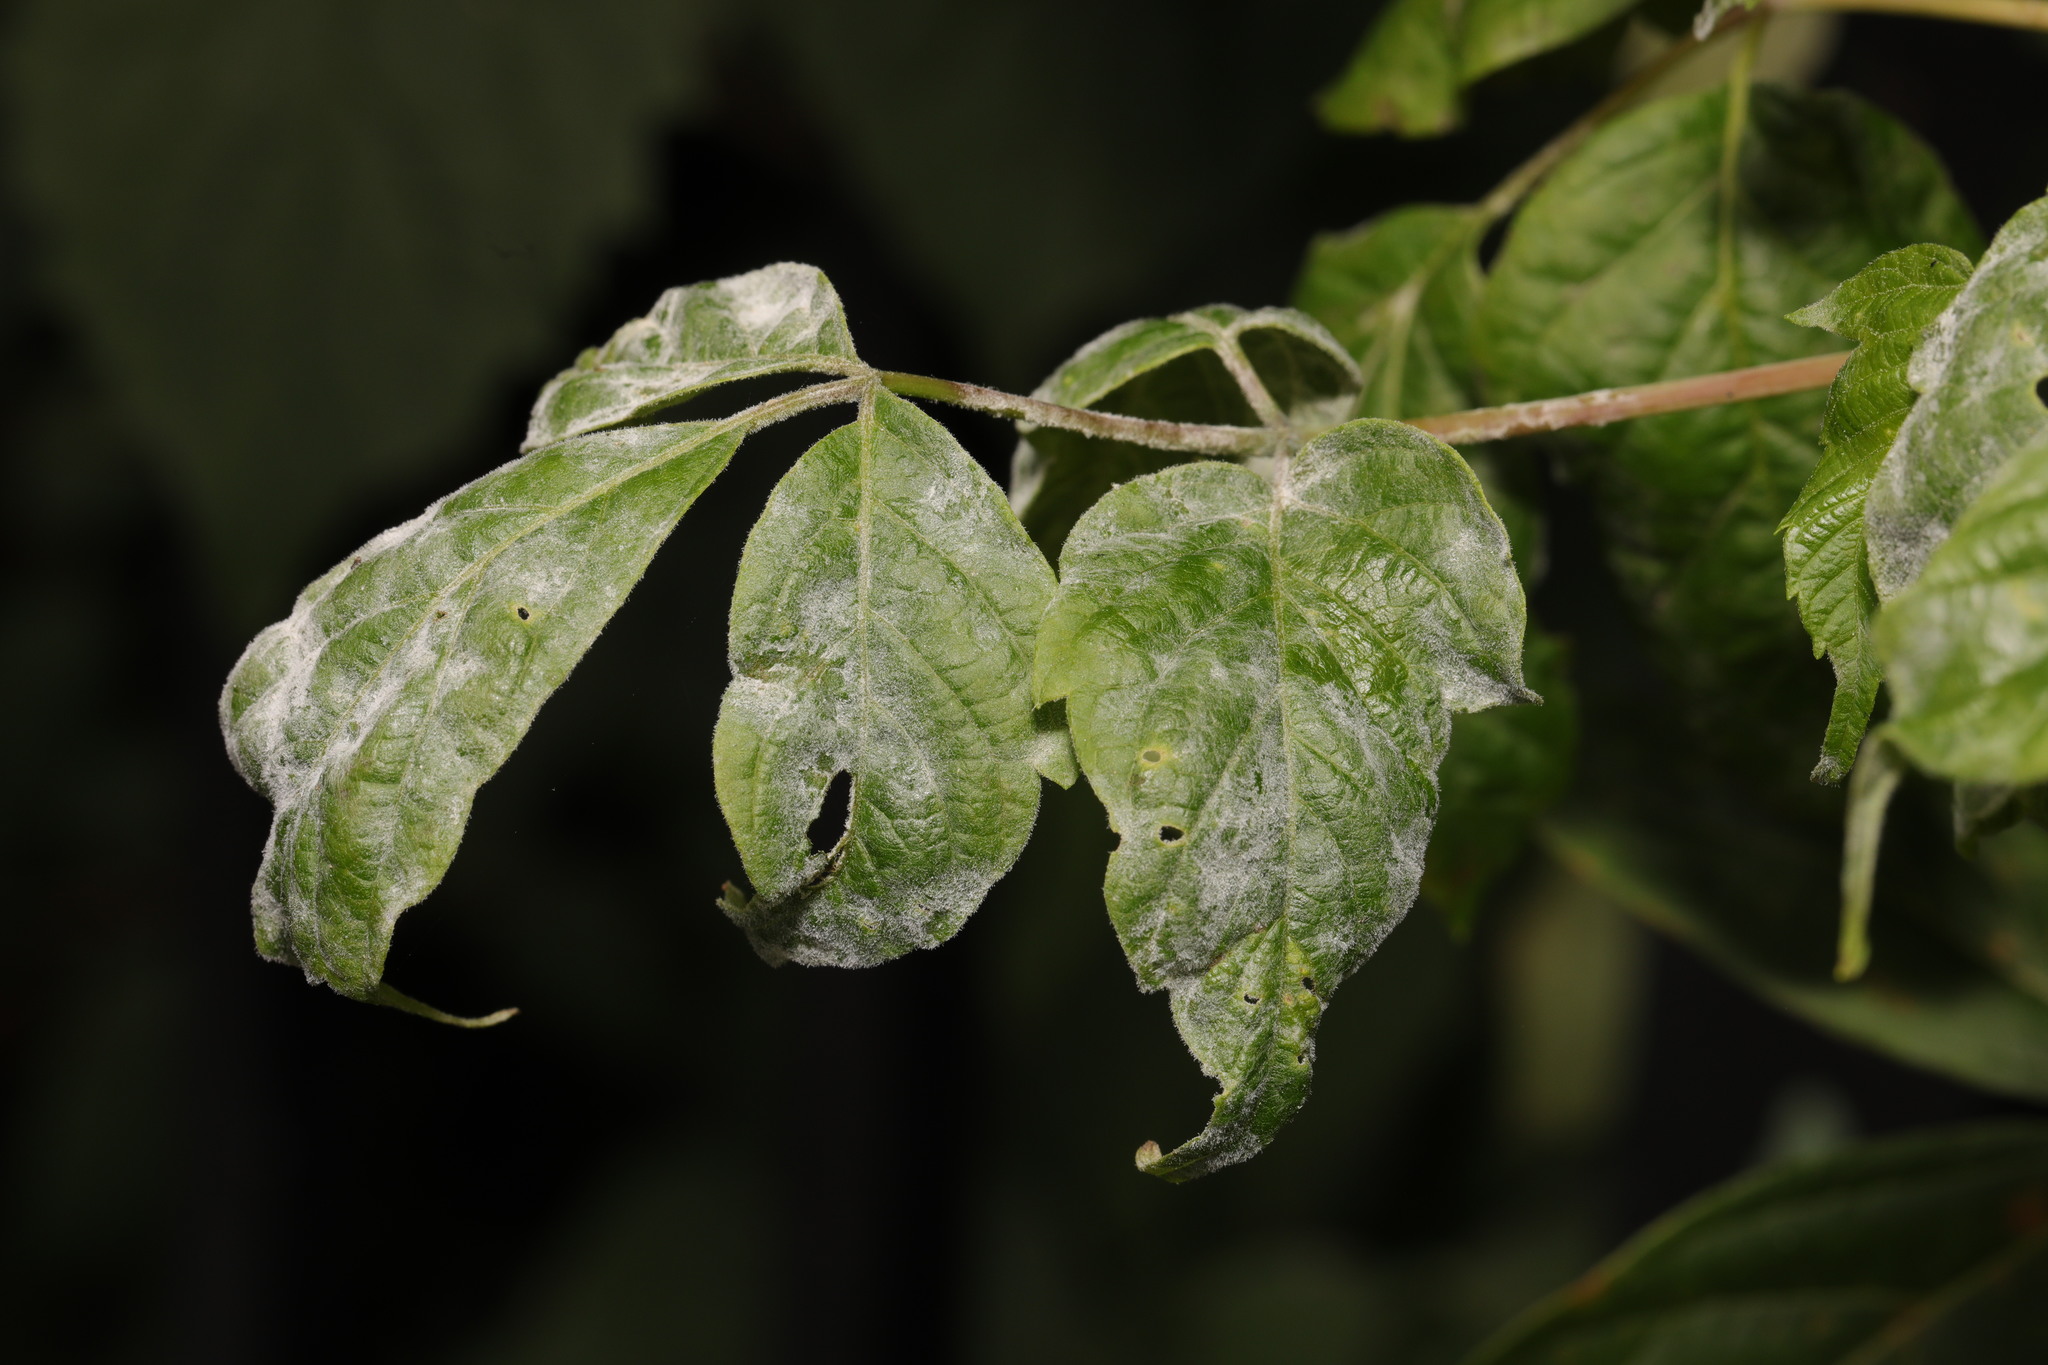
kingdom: Fungi
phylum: Ascomycota
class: Leotiomycetes
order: Helotiales
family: Erysiphaceae
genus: Sawadaea
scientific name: Sawadaea bicornis
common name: Maple mildew
